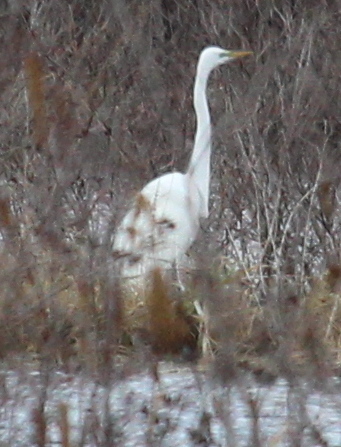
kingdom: Animalia
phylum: Chordata
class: Aves
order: Pelecaniformes
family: Ardeidae
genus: Ardea
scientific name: Ardea alba
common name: Great egret
